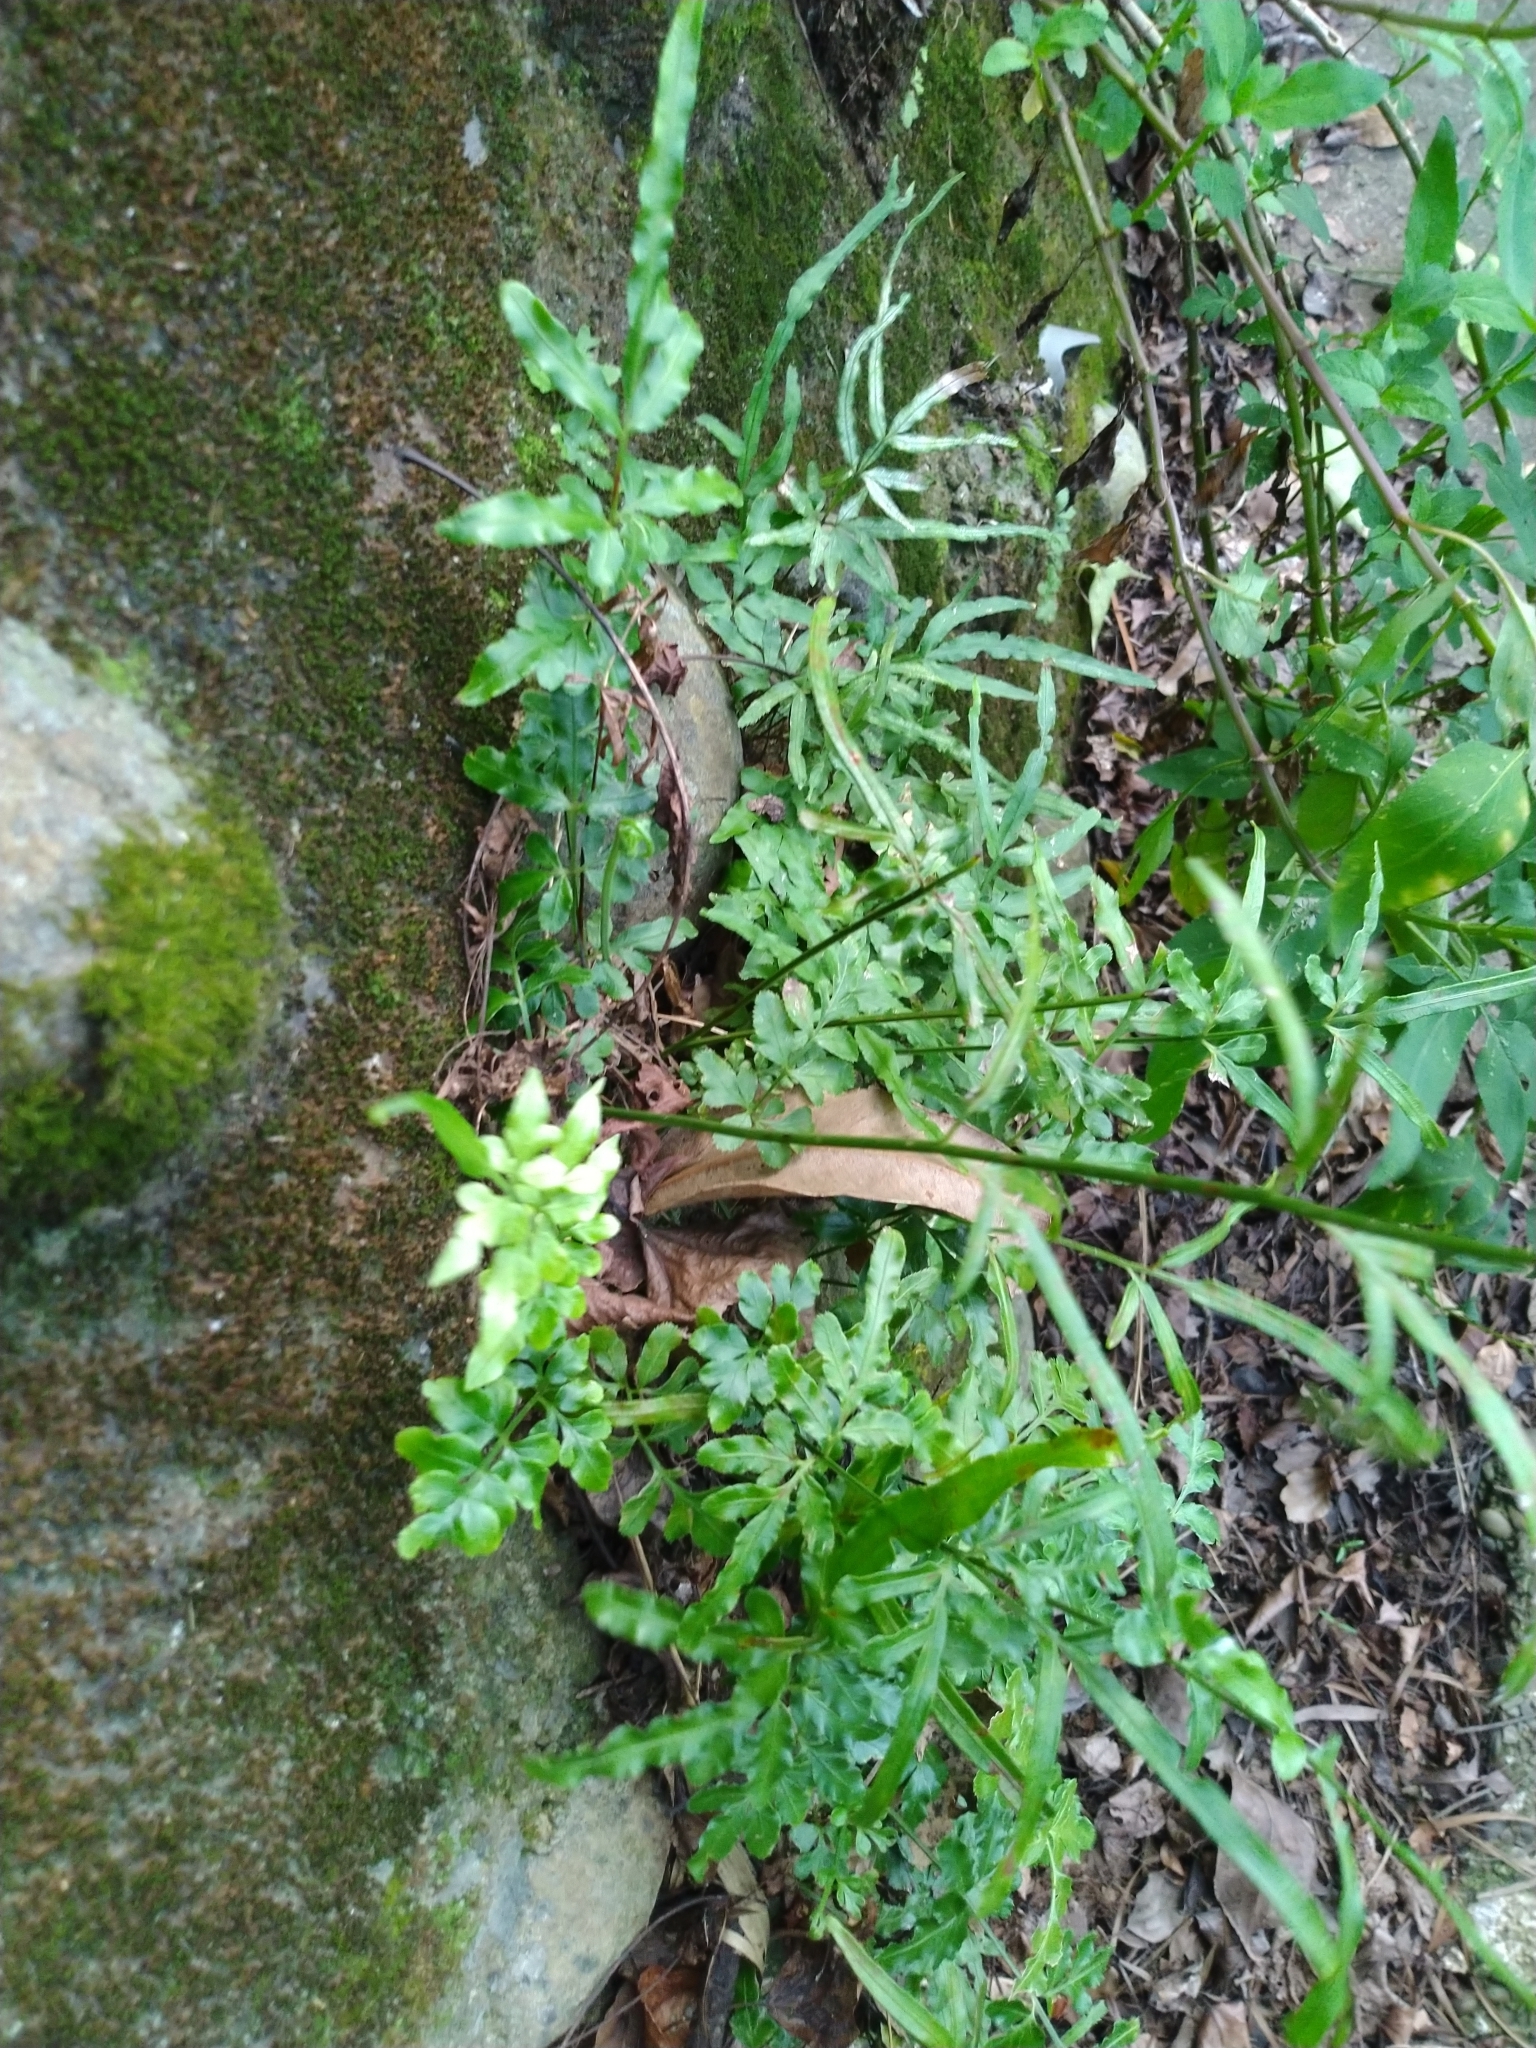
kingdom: Plantae
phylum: Tracheophyta
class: Polypodiopsida
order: Polypodiales
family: Pteridaceae
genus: Pteris
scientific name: Pteris ensiformis
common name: Sword brake
